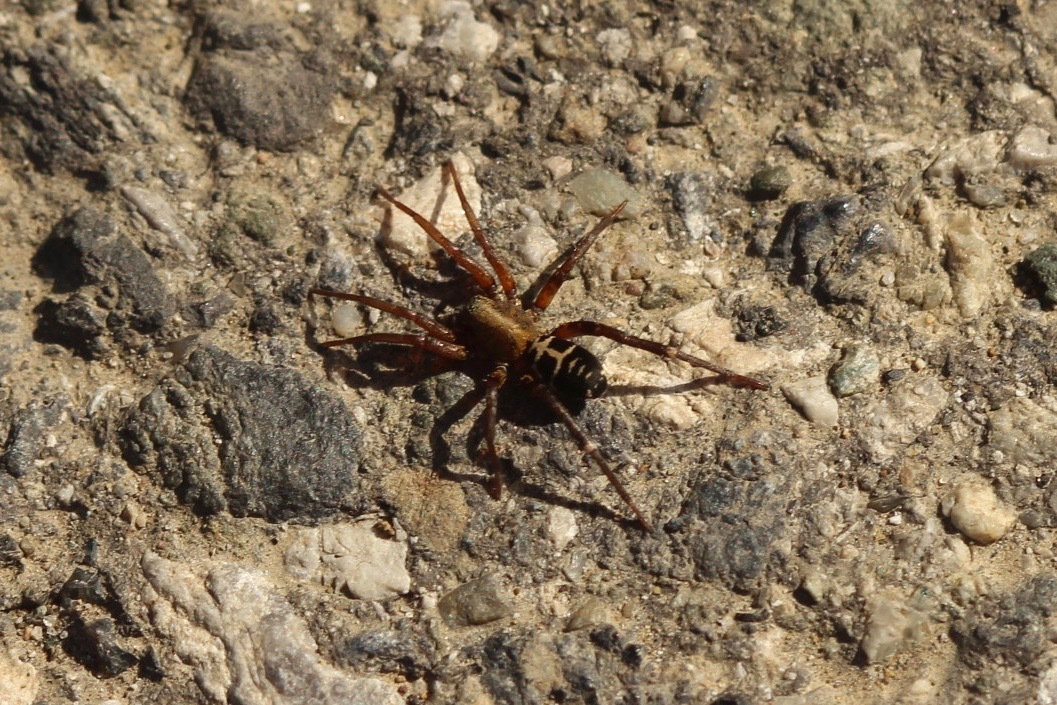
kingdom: Animalia
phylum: Arthropoda
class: Arachnida
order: Araneae
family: Corinnidae
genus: Castianeira
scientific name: Castianeira thalia
